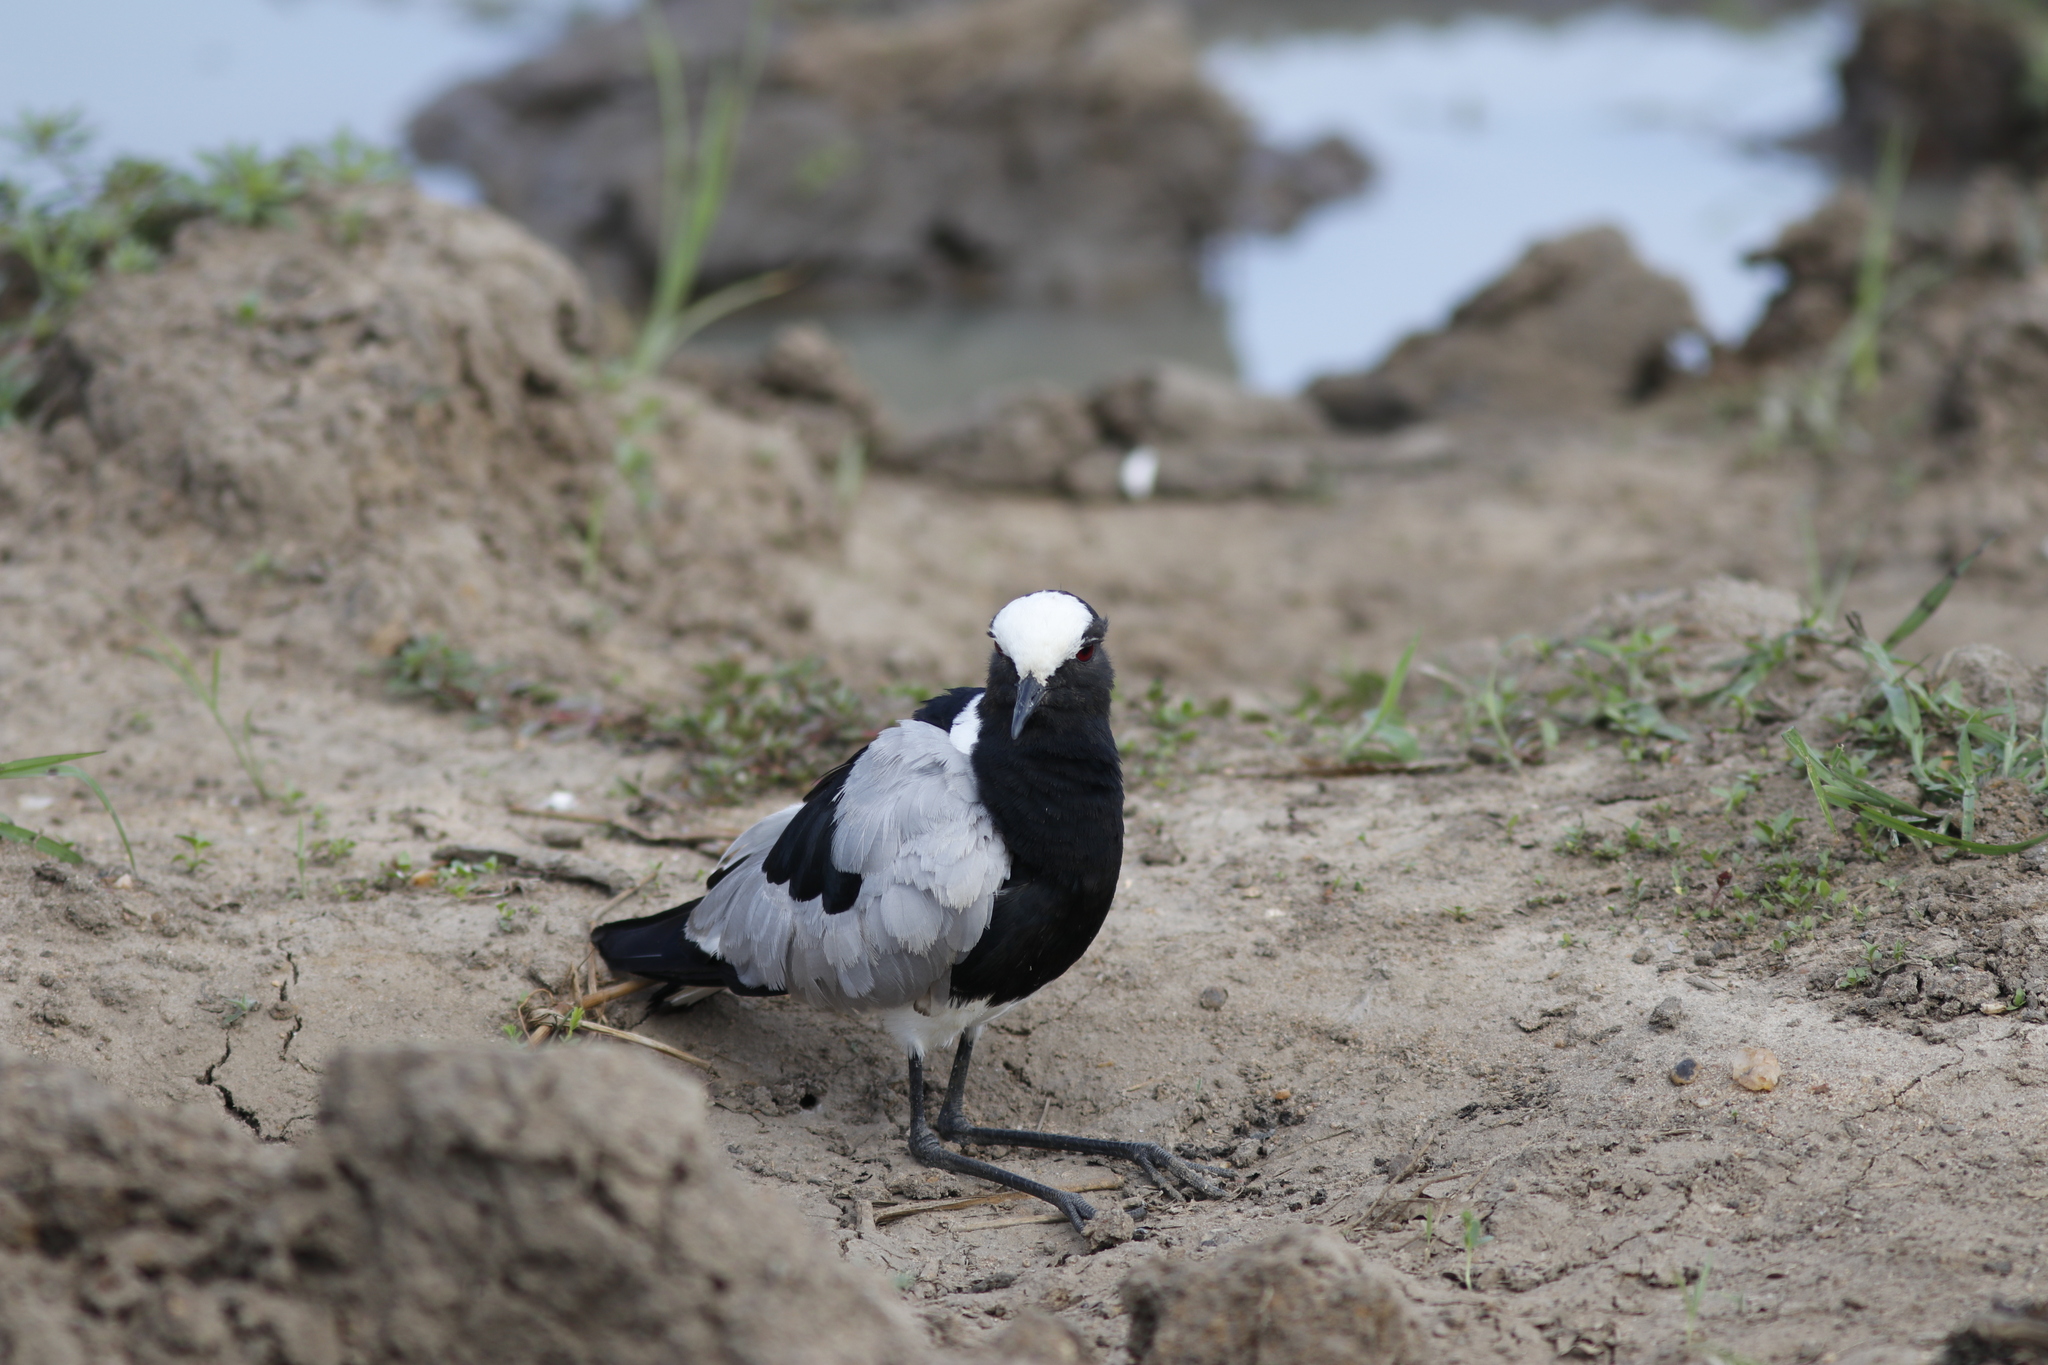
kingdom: Animalia
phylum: Chordata
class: Aves
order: Charadriiformes
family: Charadriidae
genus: Vanellus
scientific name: Vanellus armatus
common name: Blacksmith lapwing
